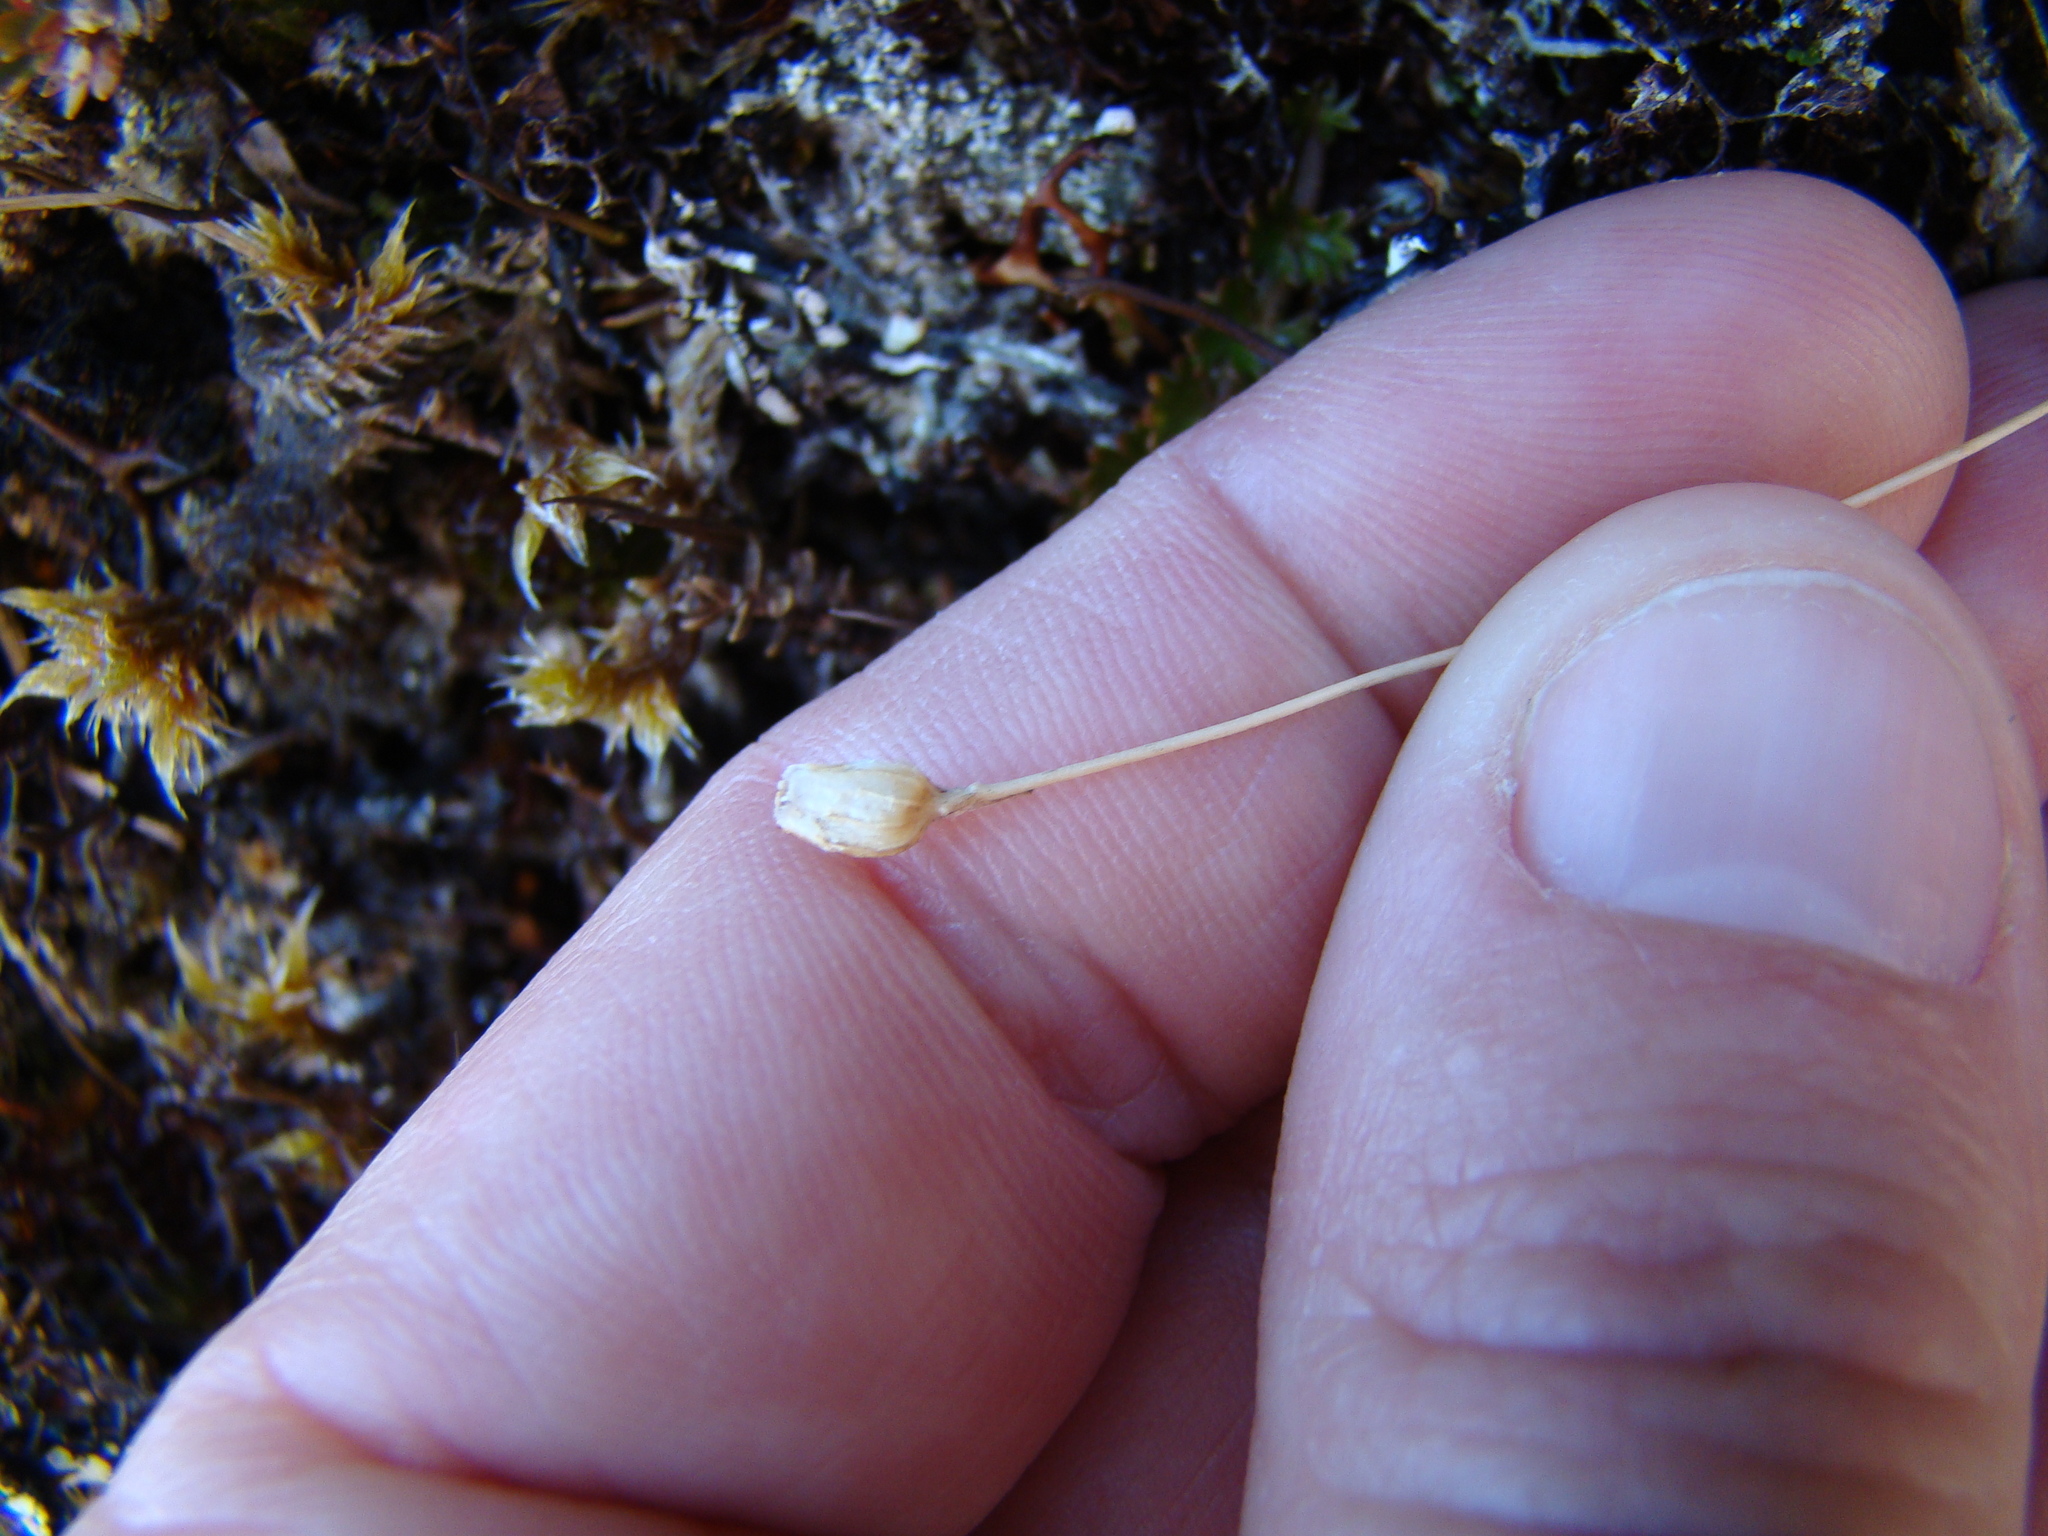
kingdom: Plantae
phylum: Tracheophyta
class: Magnoliopsida
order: Asterales
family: Stylidiaceae
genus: Forstera
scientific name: Forstera tenella
